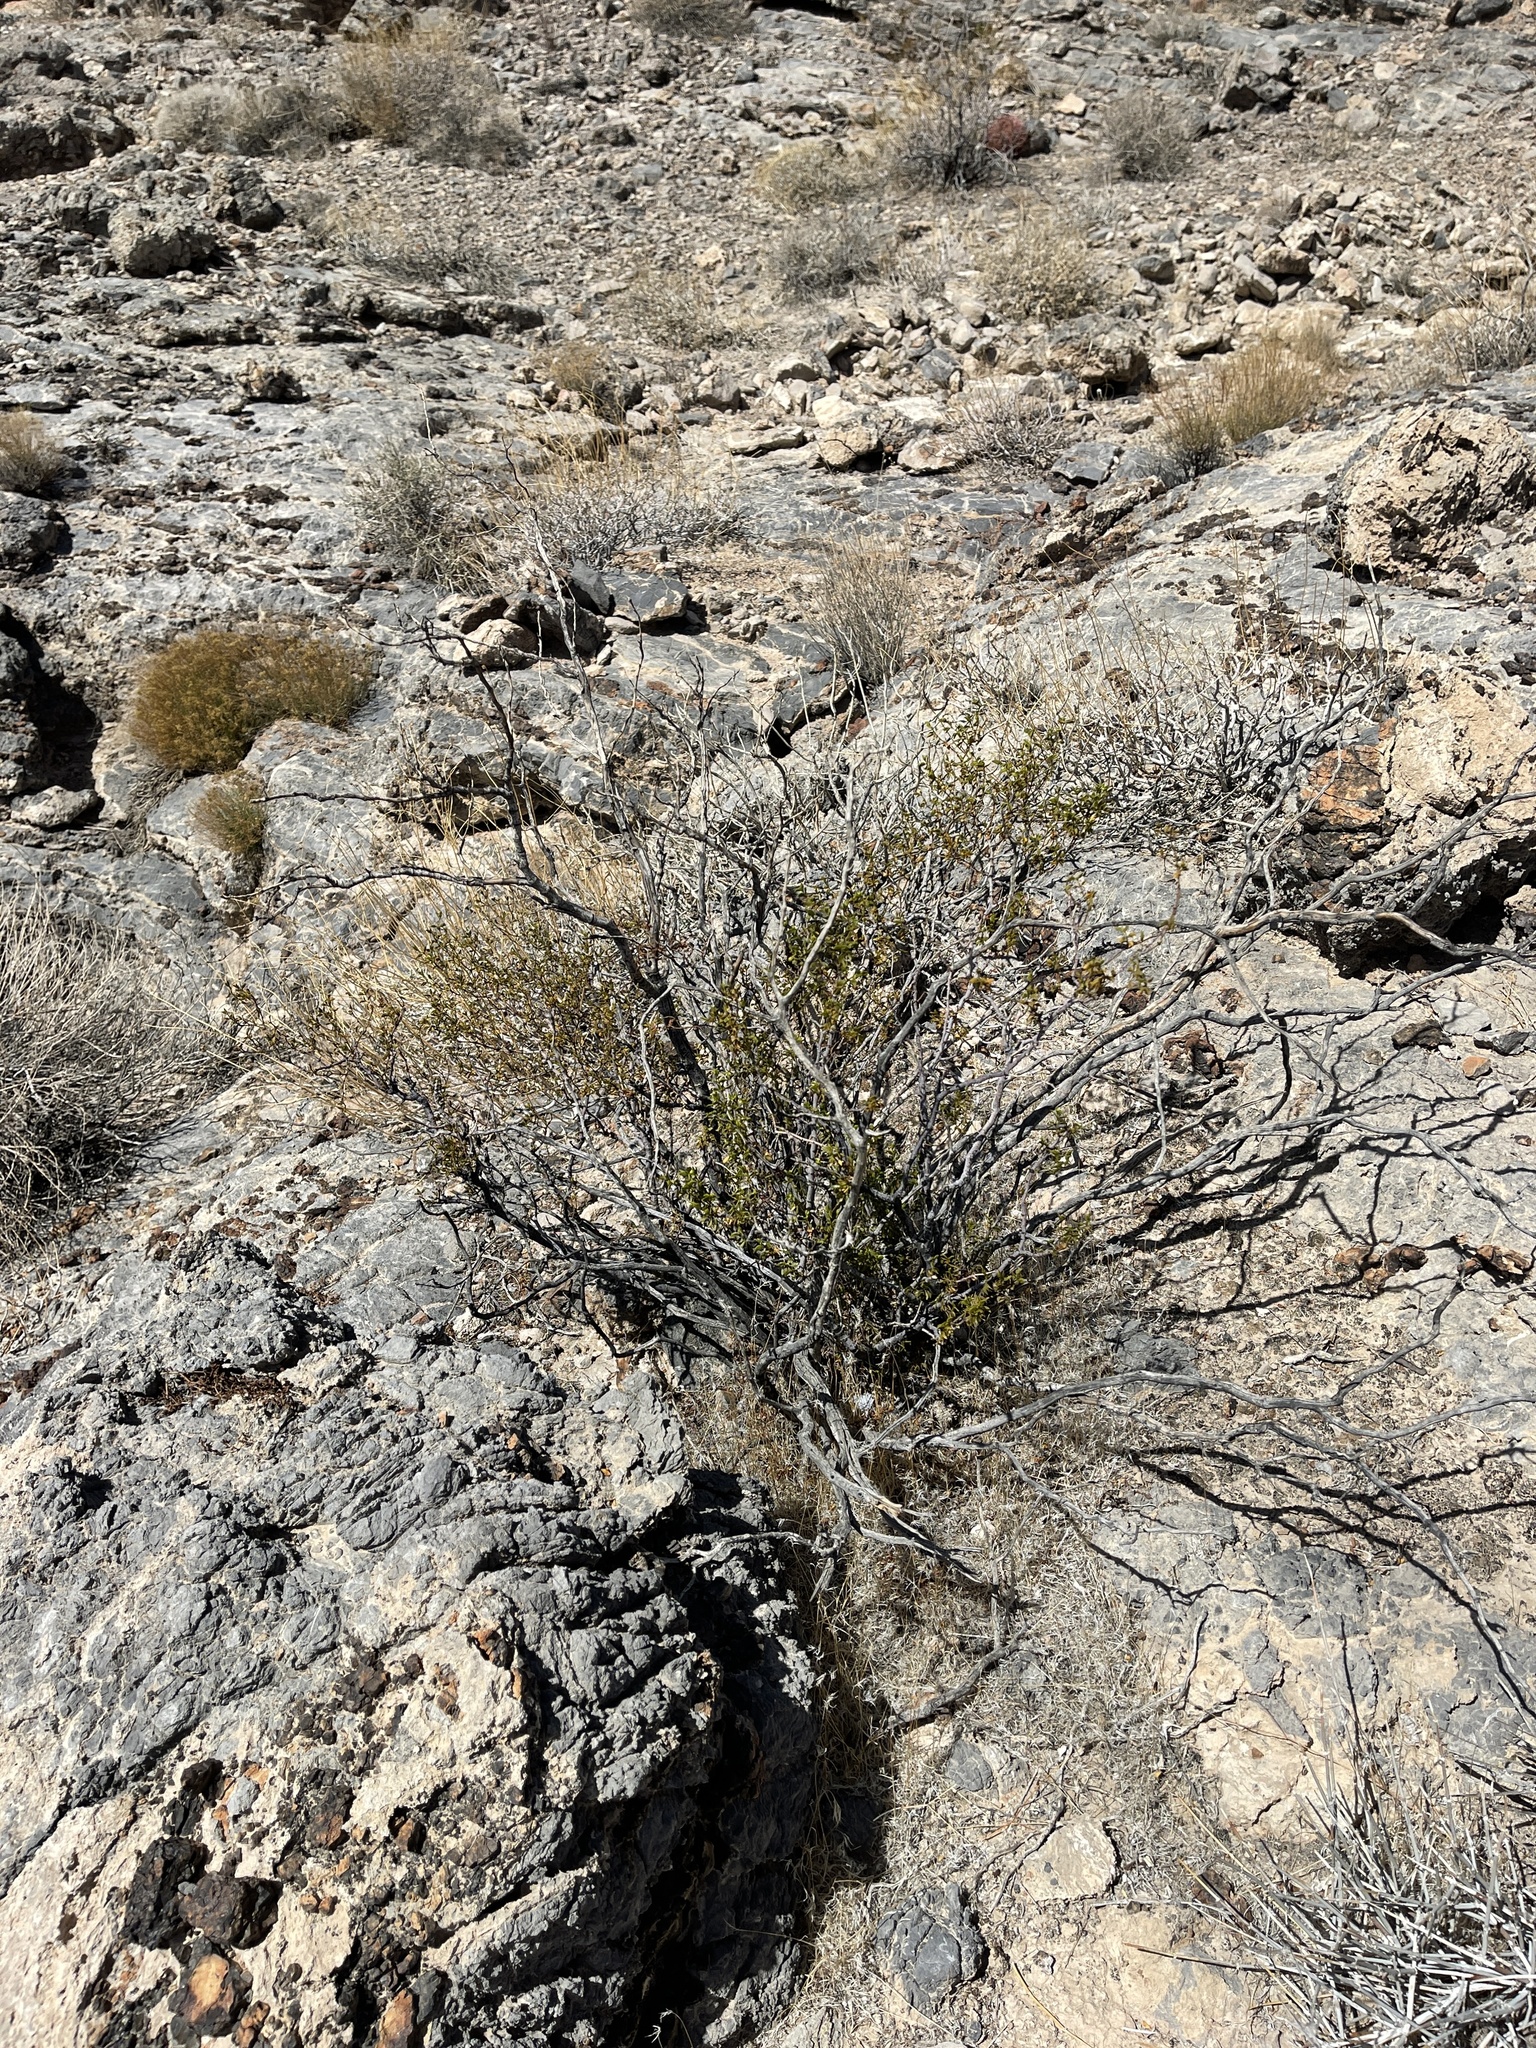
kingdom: Plantae
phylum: Tracheophyta
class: Magnoliopsida
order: Zygophyllales
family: Zygophyllaceae
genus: Larrea
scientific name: Larrea tridentata
